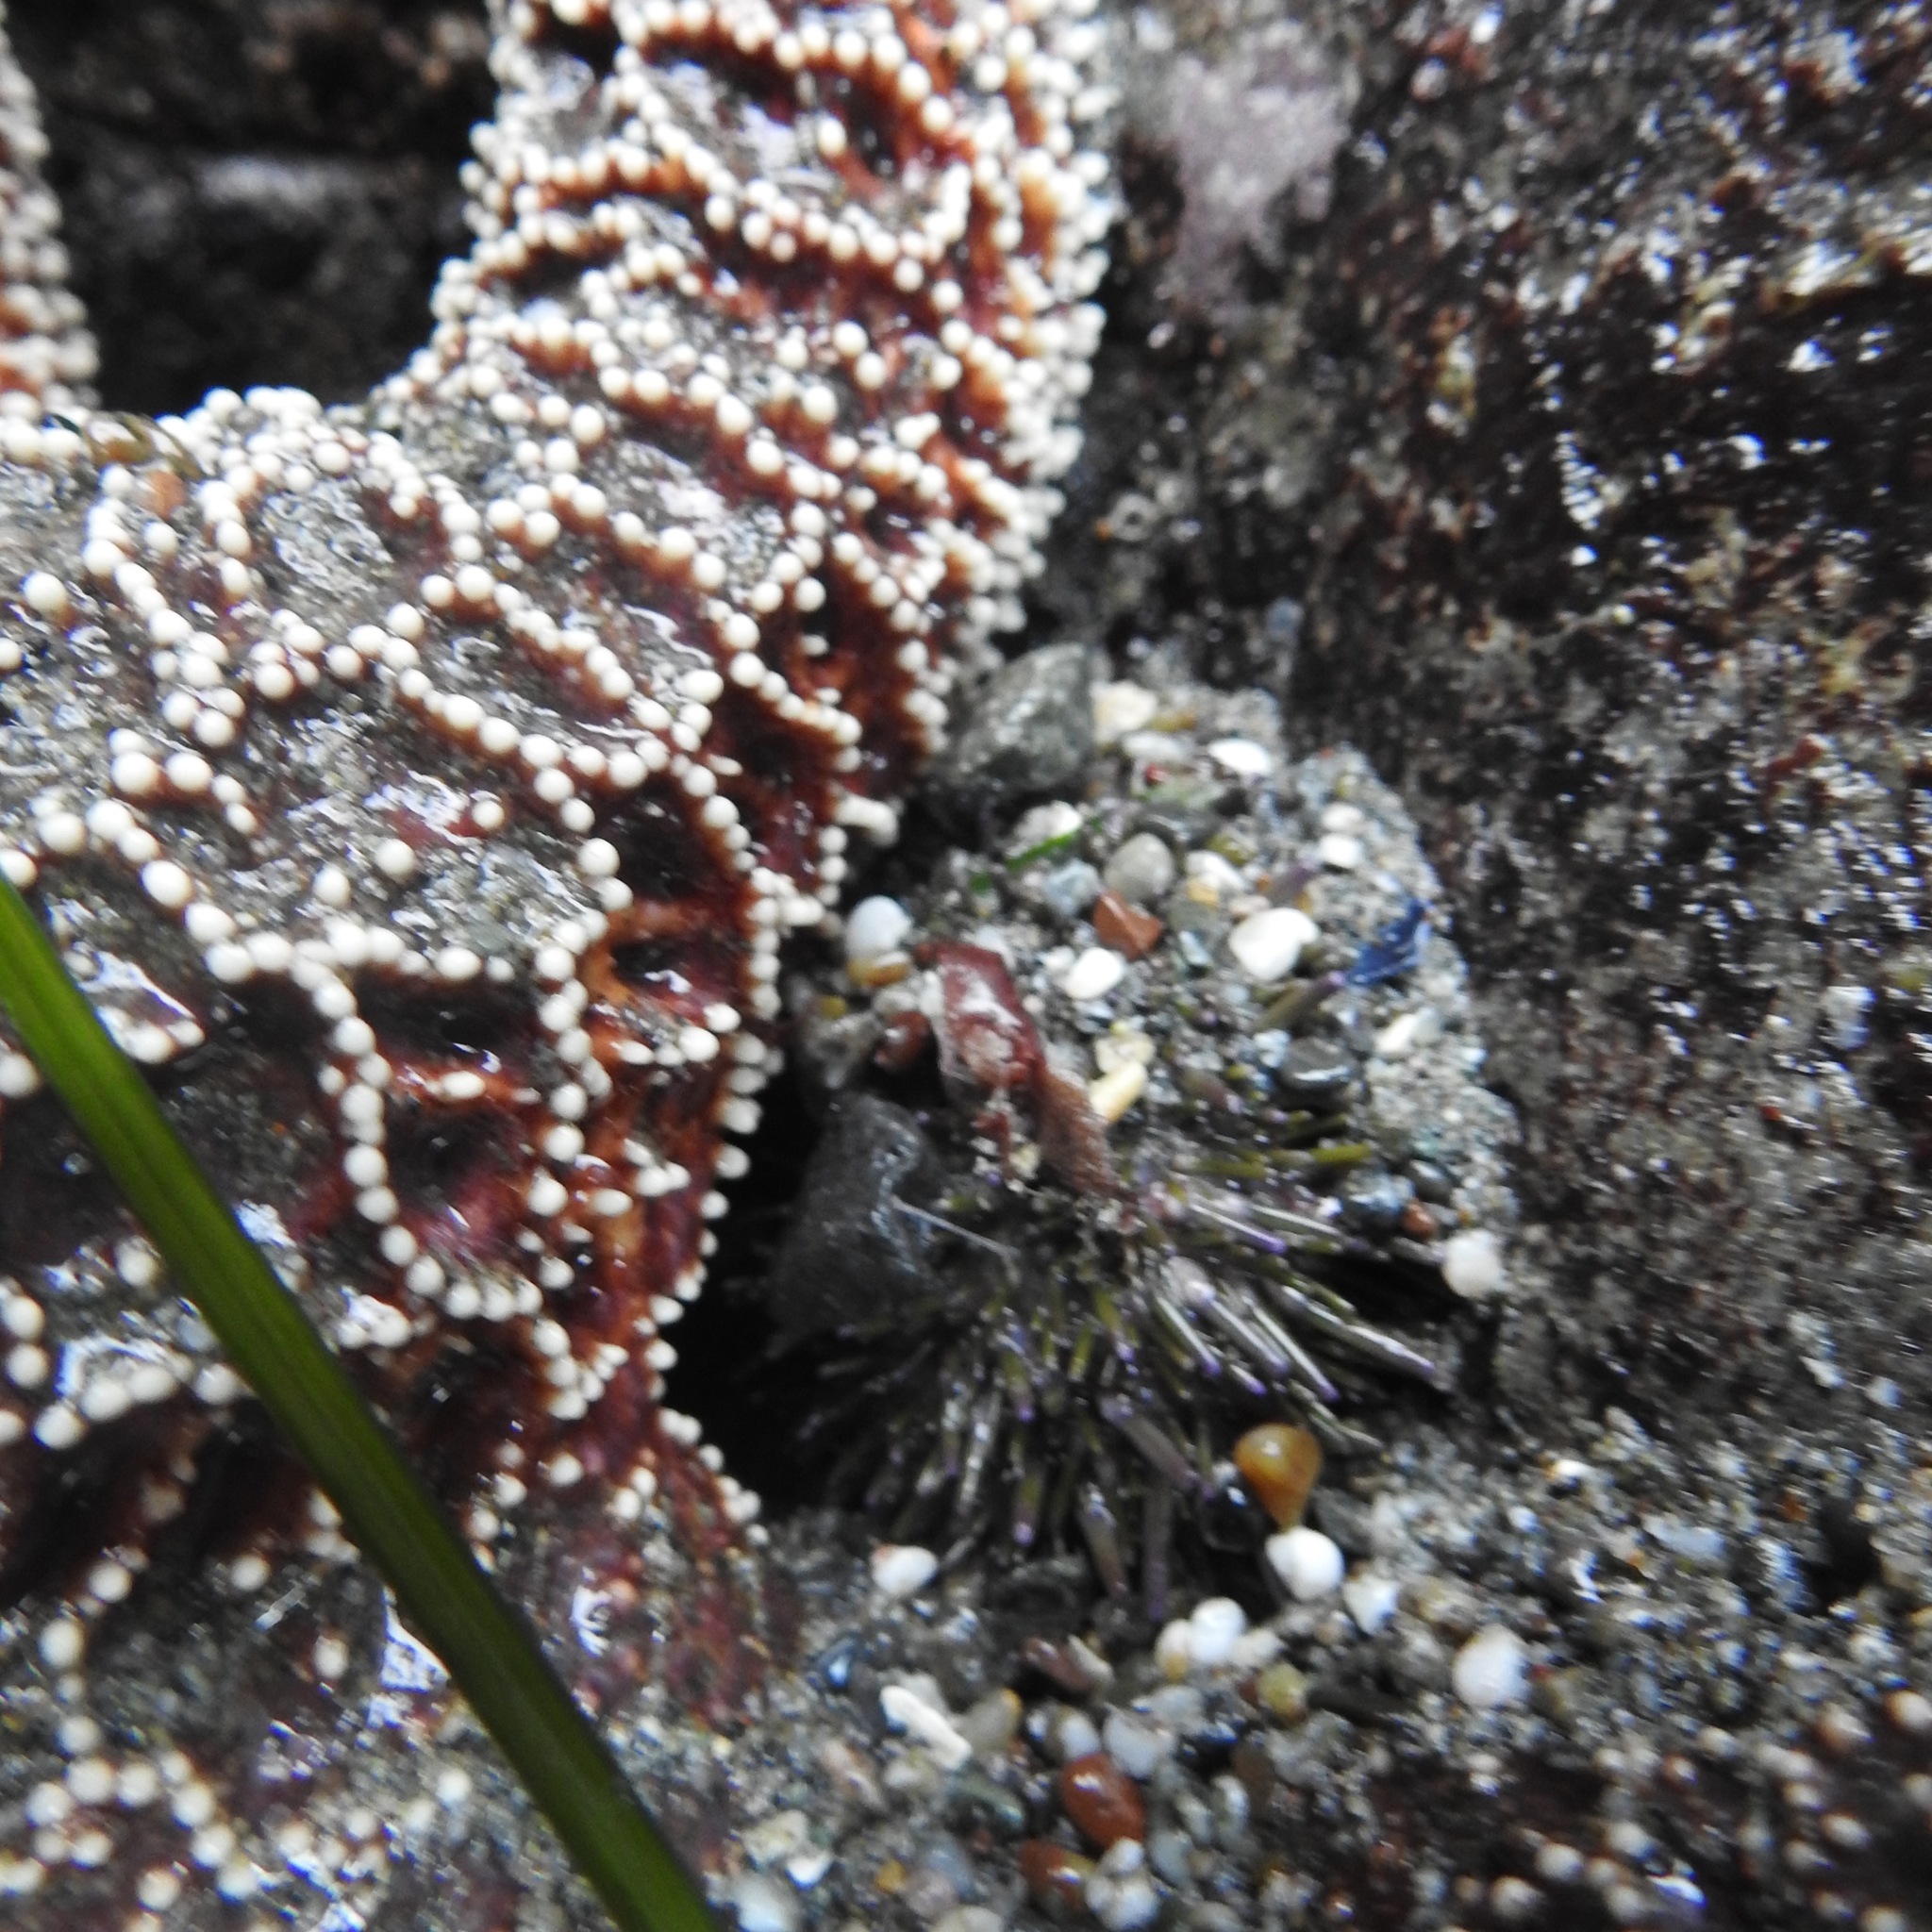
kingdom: Animalia
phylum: Echinodermata
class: Echinoidea
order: Camarodonta
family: Strongylocentrotidae
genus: Strongylocentrotus
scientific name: Strongylocentrotus purpuratus
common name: Purple sea urchin
